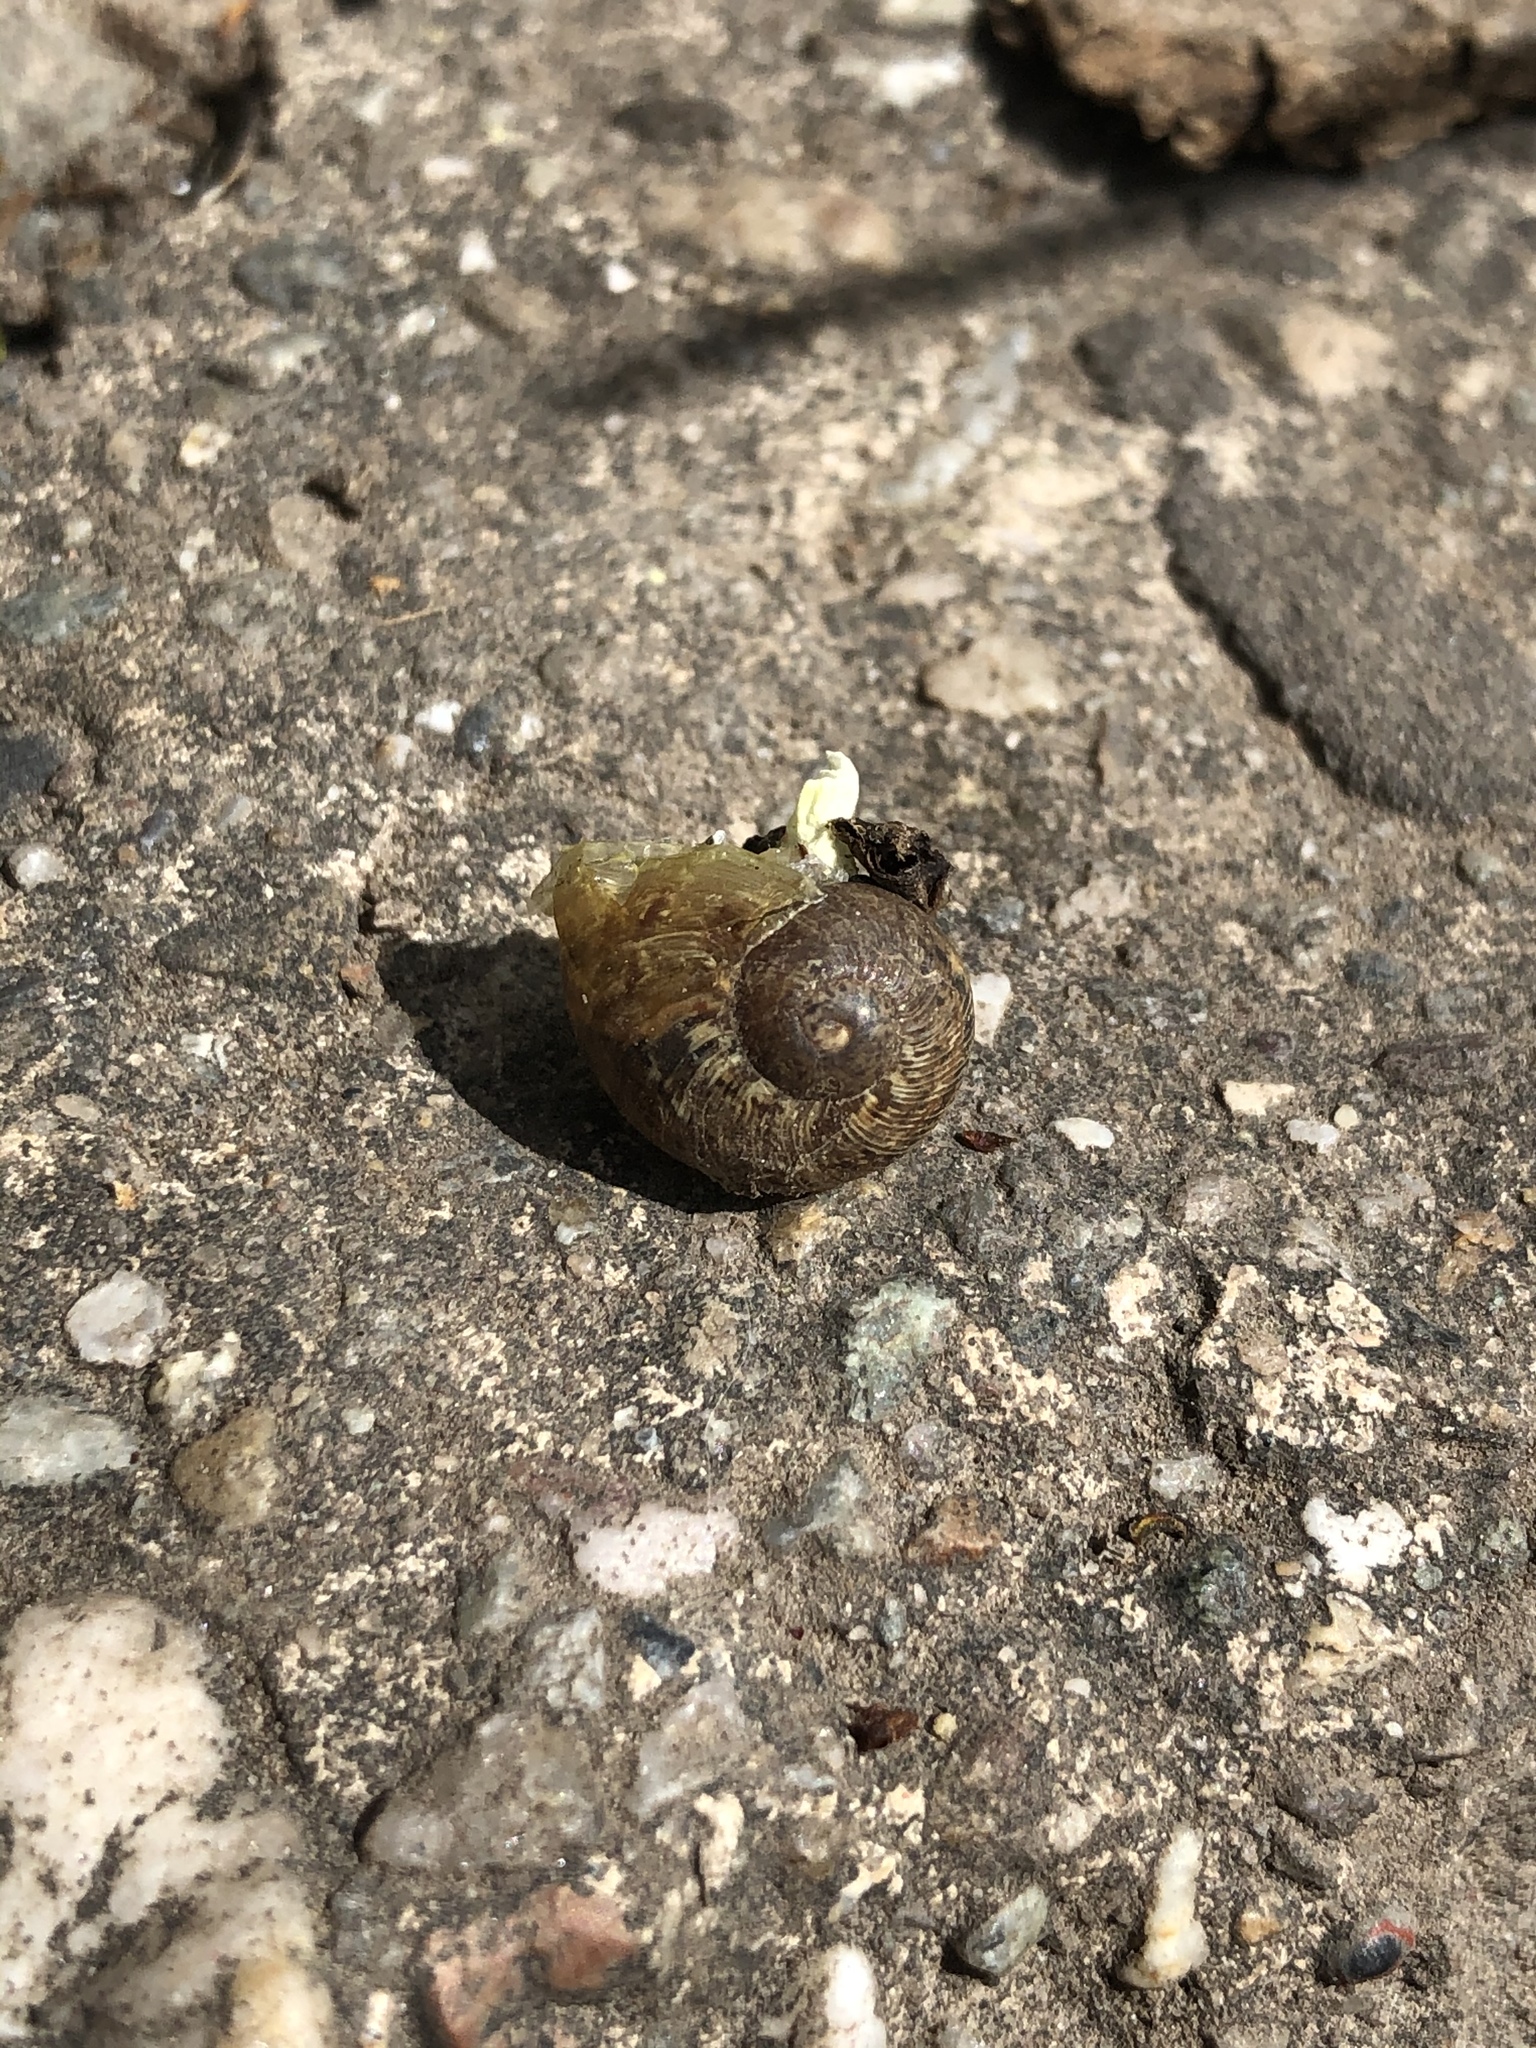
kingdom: Animalia
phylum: Mollusca
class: Gastropoda
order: Stylommatophora
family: Helicidae
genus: Cornu
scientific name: Cornu aspersum
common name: Brown garden snail
